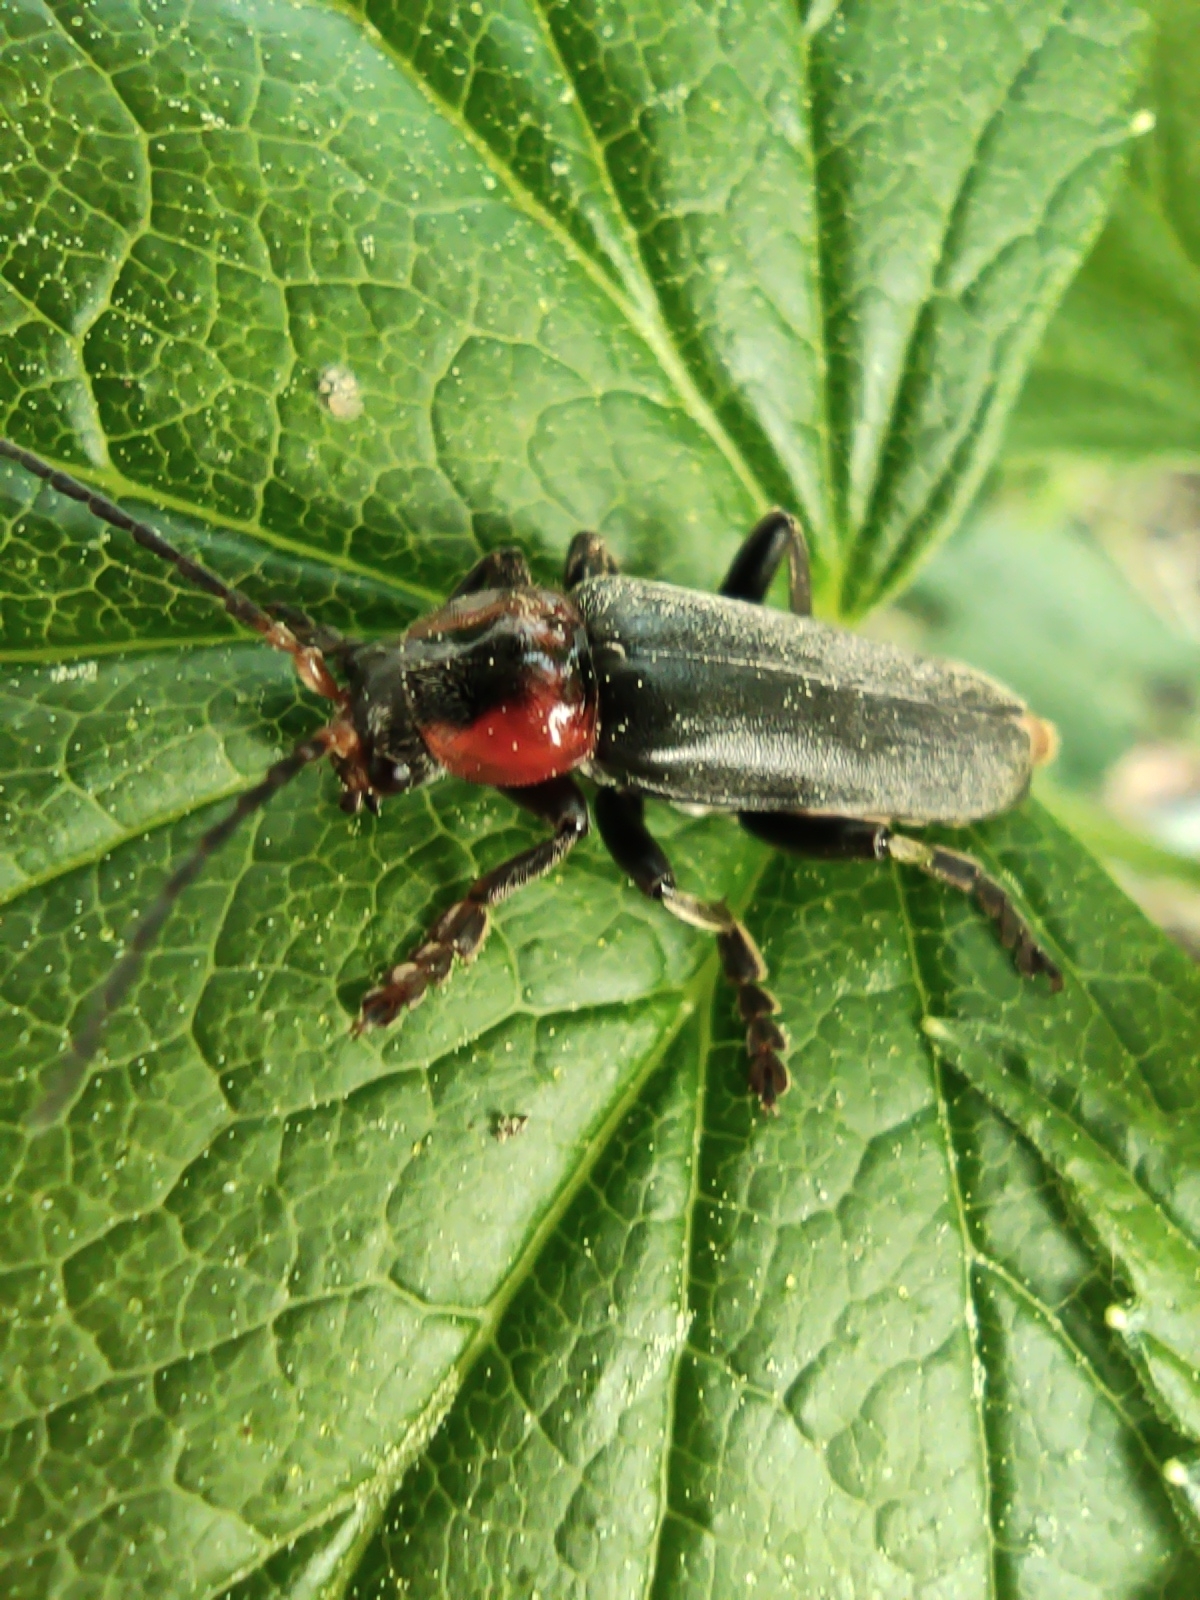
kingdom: Animalia
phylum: Arthropoda
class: Insecta
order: Coleoptera
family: Cantharidae
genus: Cantharis
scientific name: Cantharis fusca
